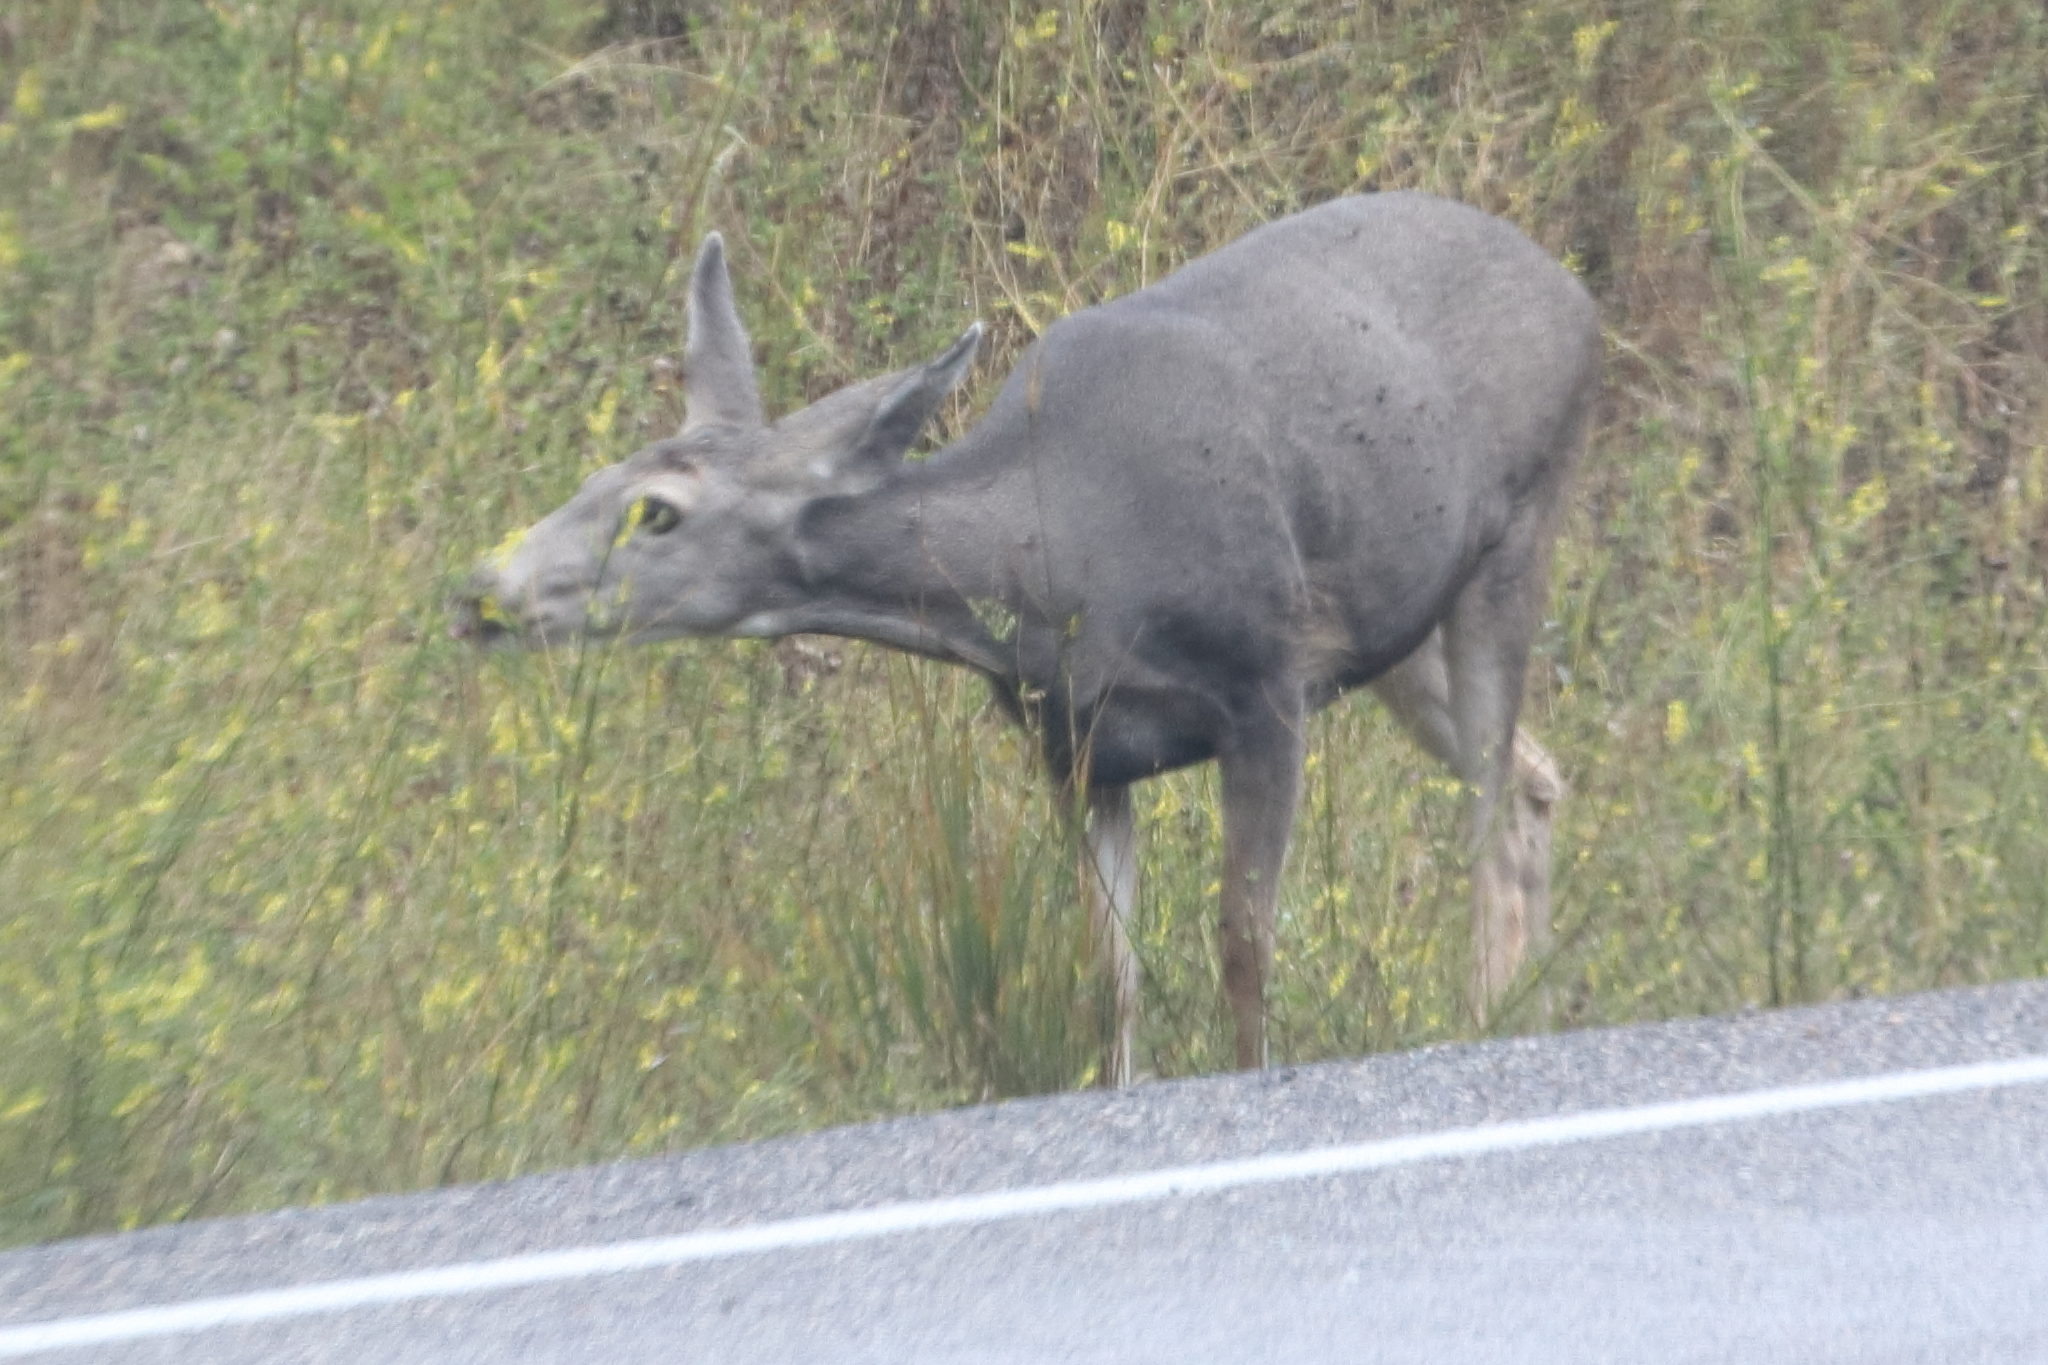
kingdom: Animalia
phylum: Chordata
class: Mammalia
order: Artiodactyla
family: Cervidae
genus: Odocoileus
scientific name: Odocoileus hemionus
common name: Mule deer
